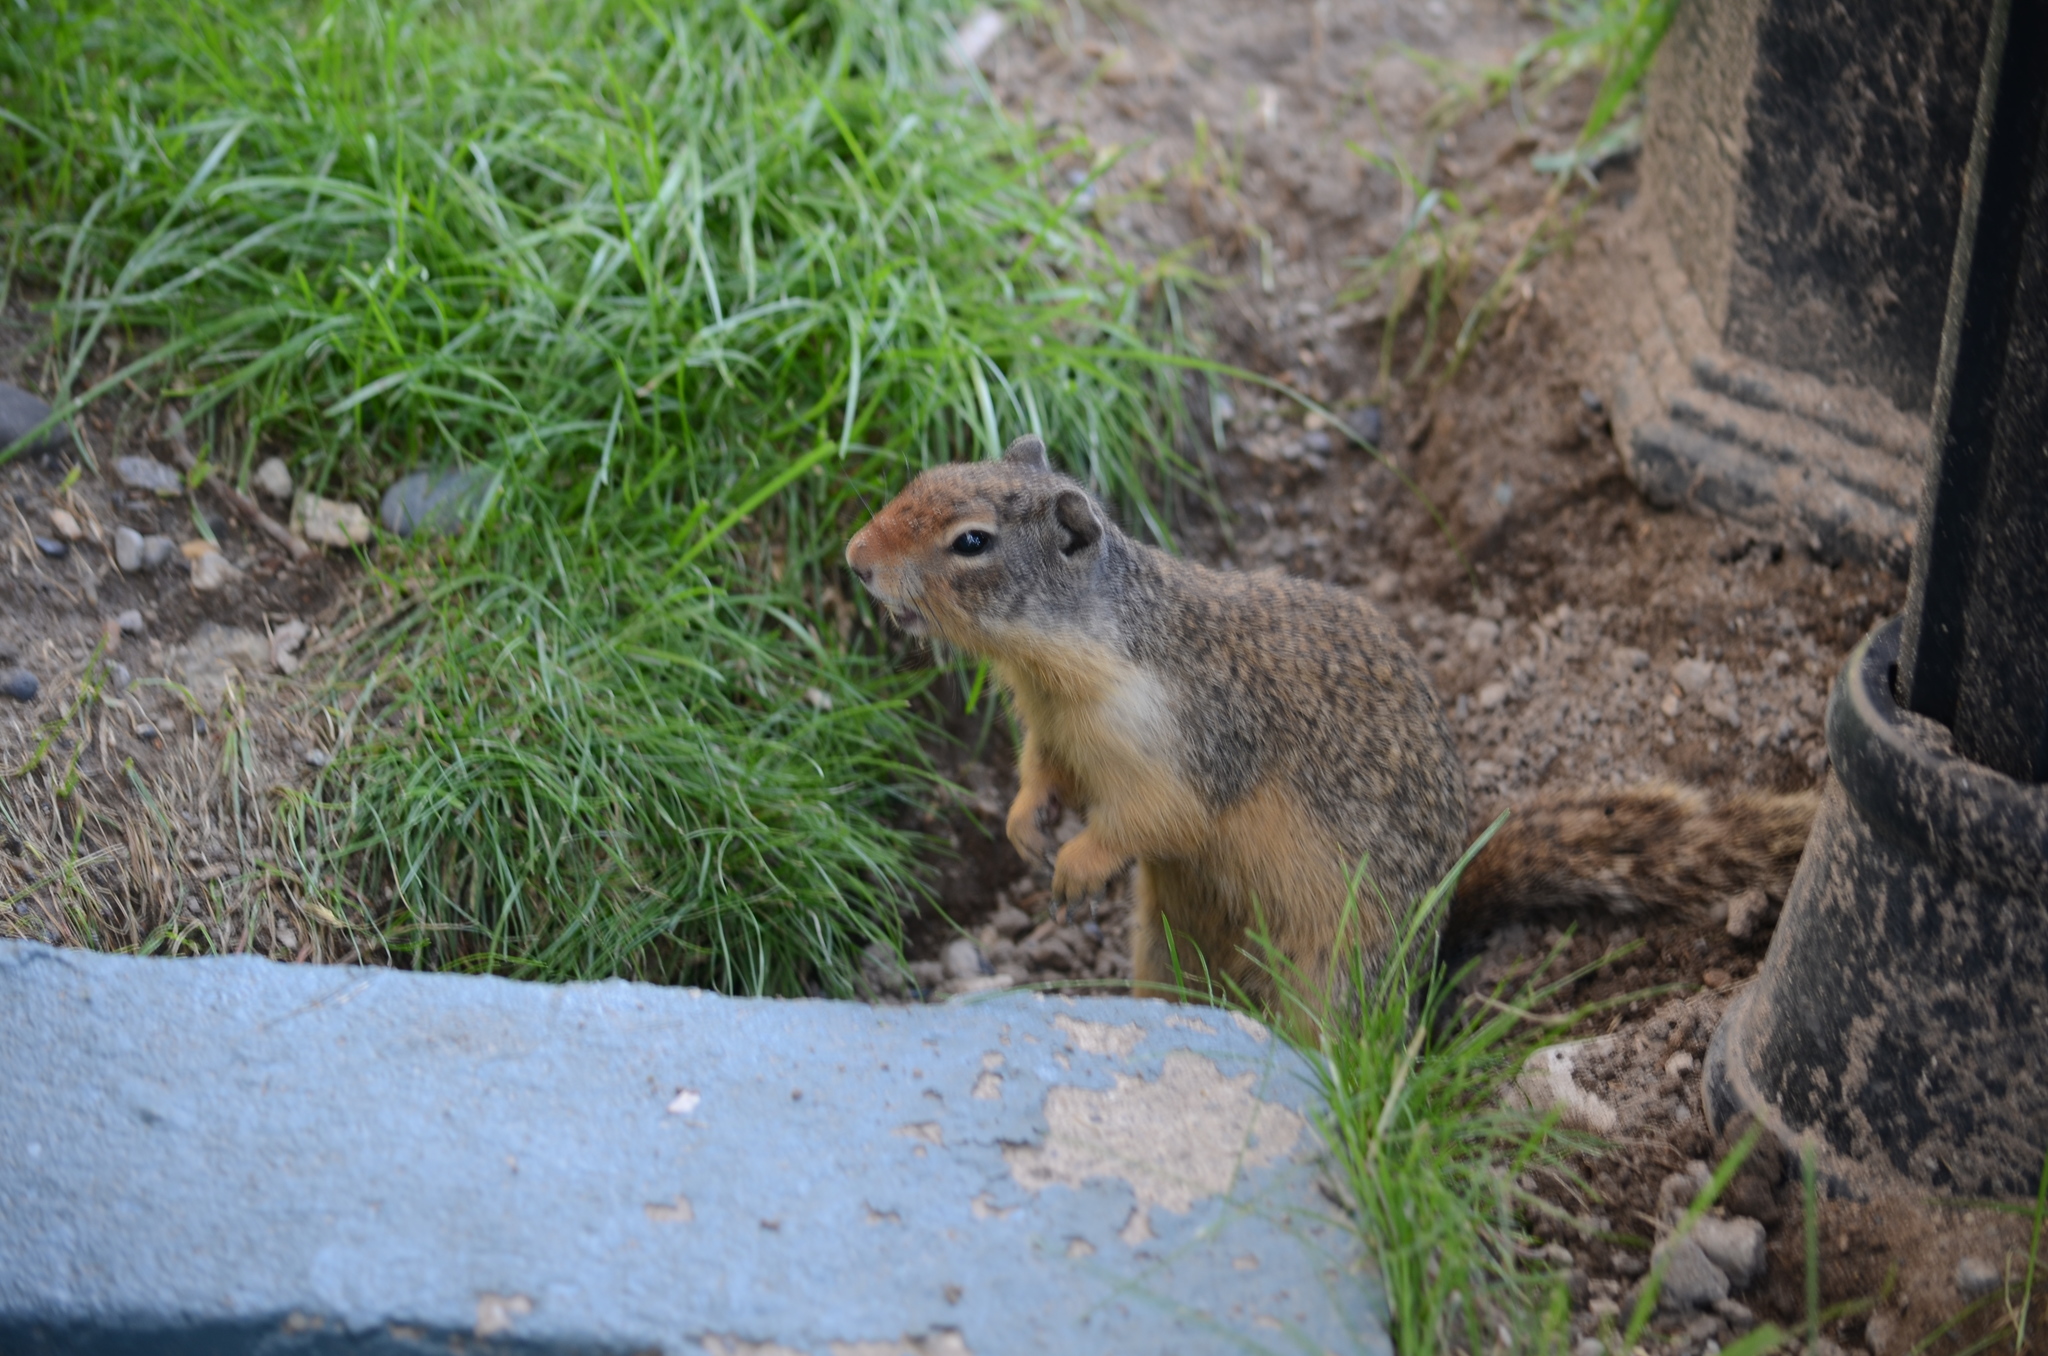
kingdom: Animalia
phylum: Chordata
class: Mammalia
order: Rodentia
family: Sciuridae
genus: Urocitellus
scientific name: Urocitellus columbianus
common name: Columbian ground squirrel
